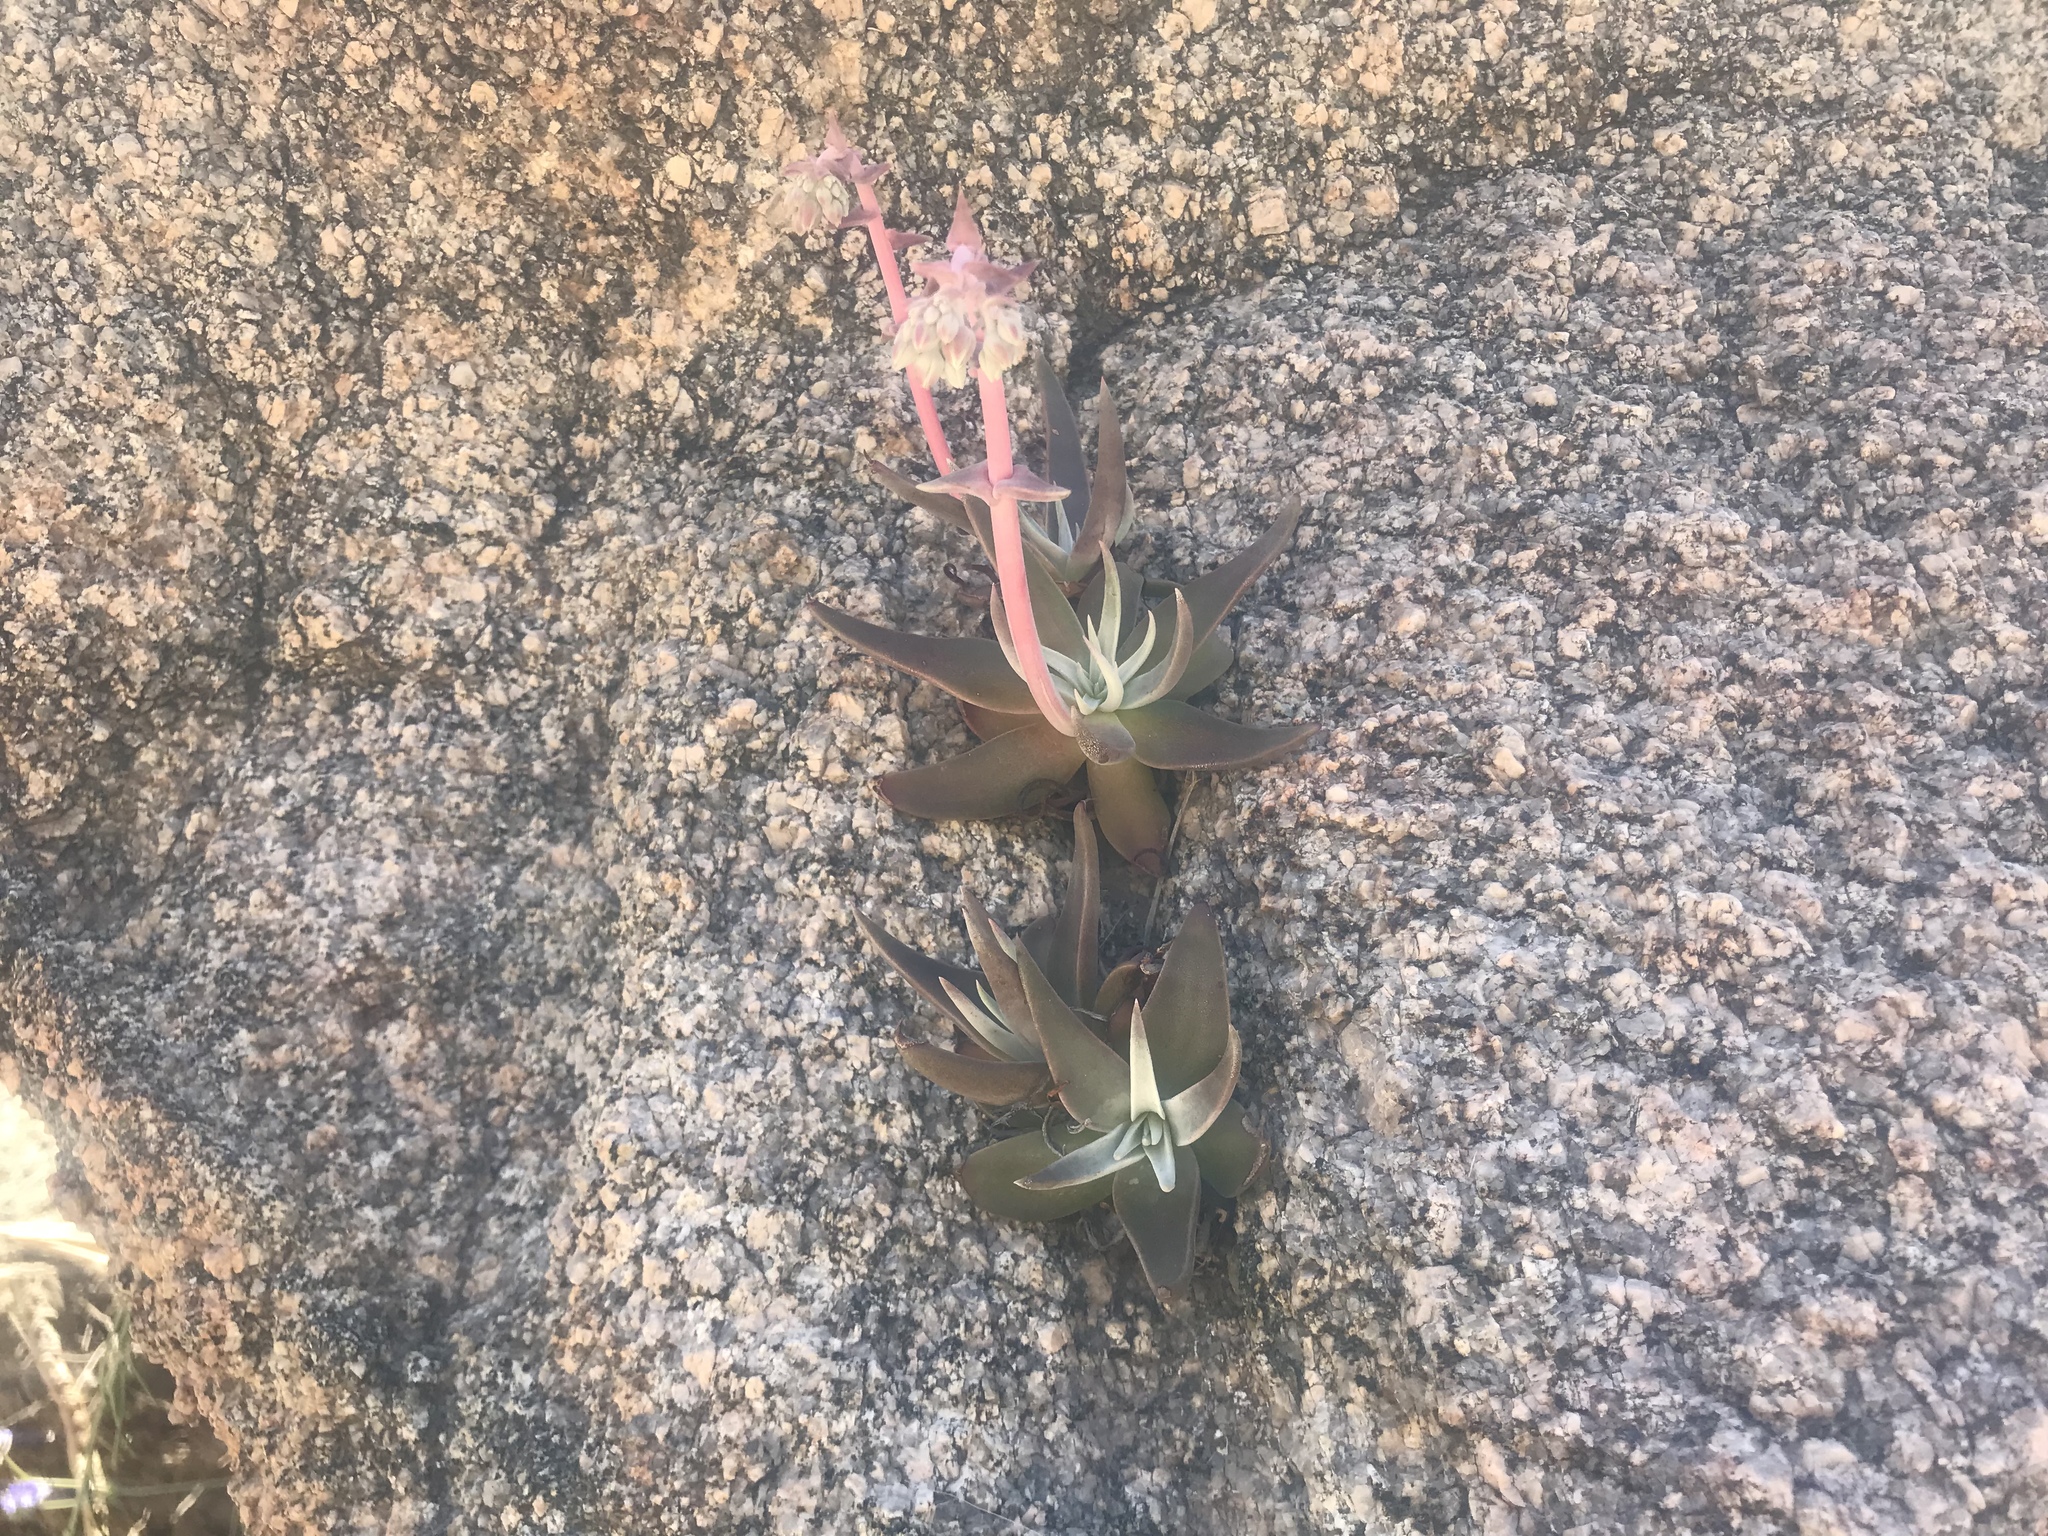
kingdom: Plantae
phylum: Tracheophyta
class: Magnoliopsida
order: Saxifragales
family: Crassulaceae
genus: Dudleya
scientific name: Dudleya saxosa
